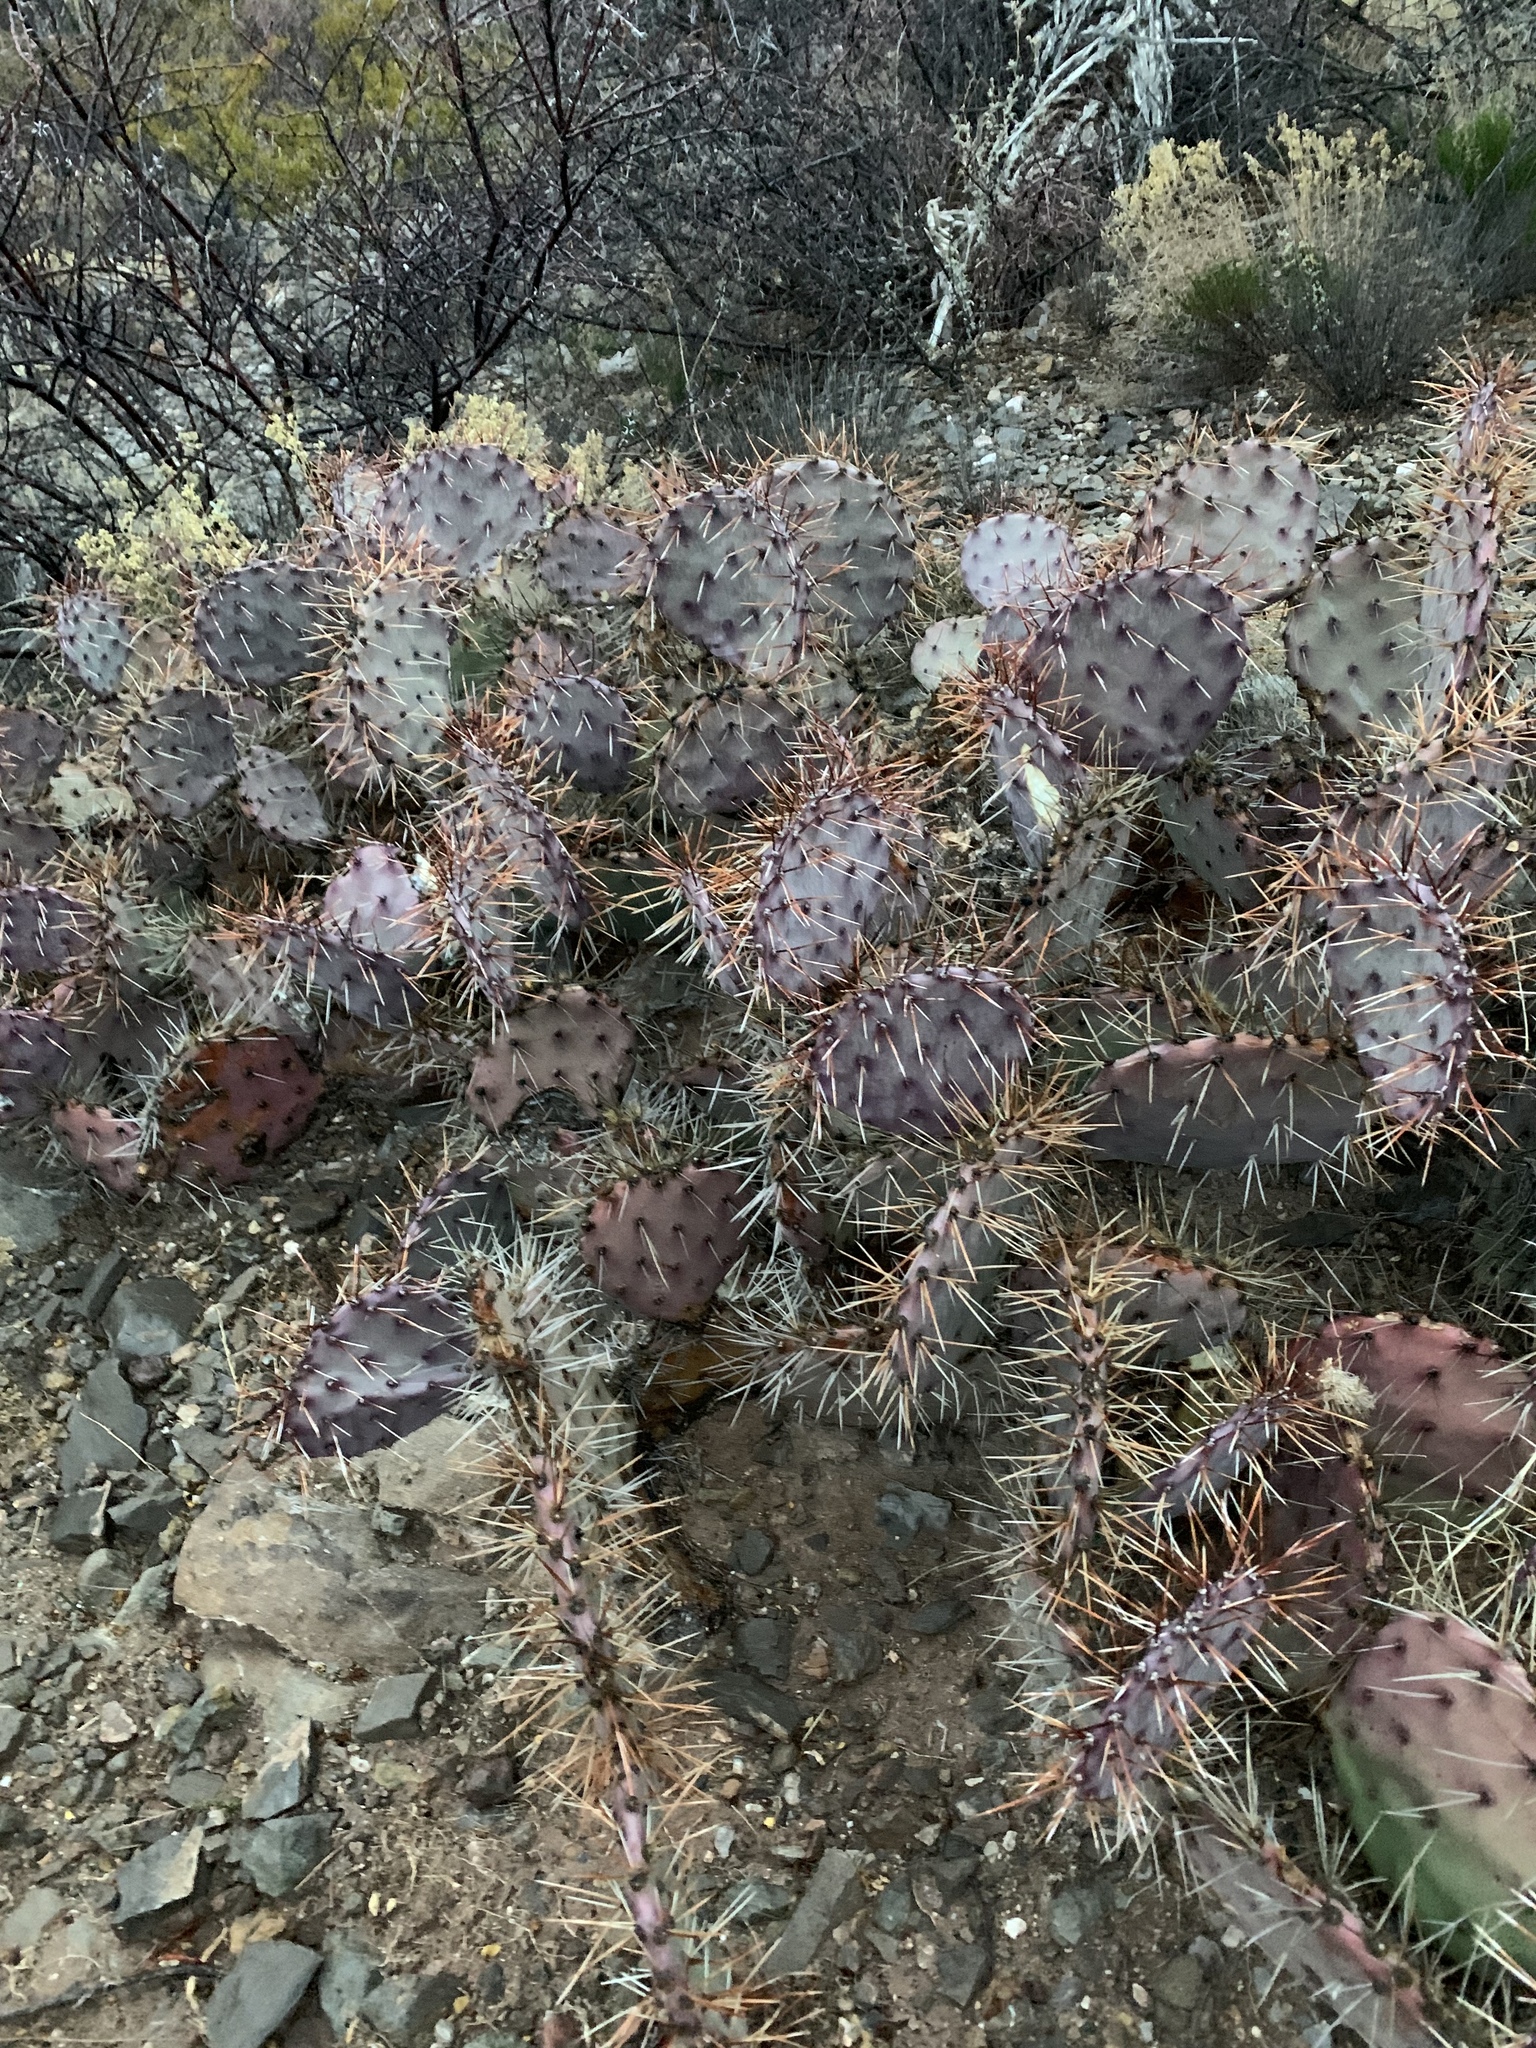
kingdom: Plantae
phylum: Tracheophyta
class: Magnoliopsida
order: Caryophyllales
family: Cactaceae
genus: Opuntia
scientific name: Opuntia macrocentra
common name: Purple prickly-pear
